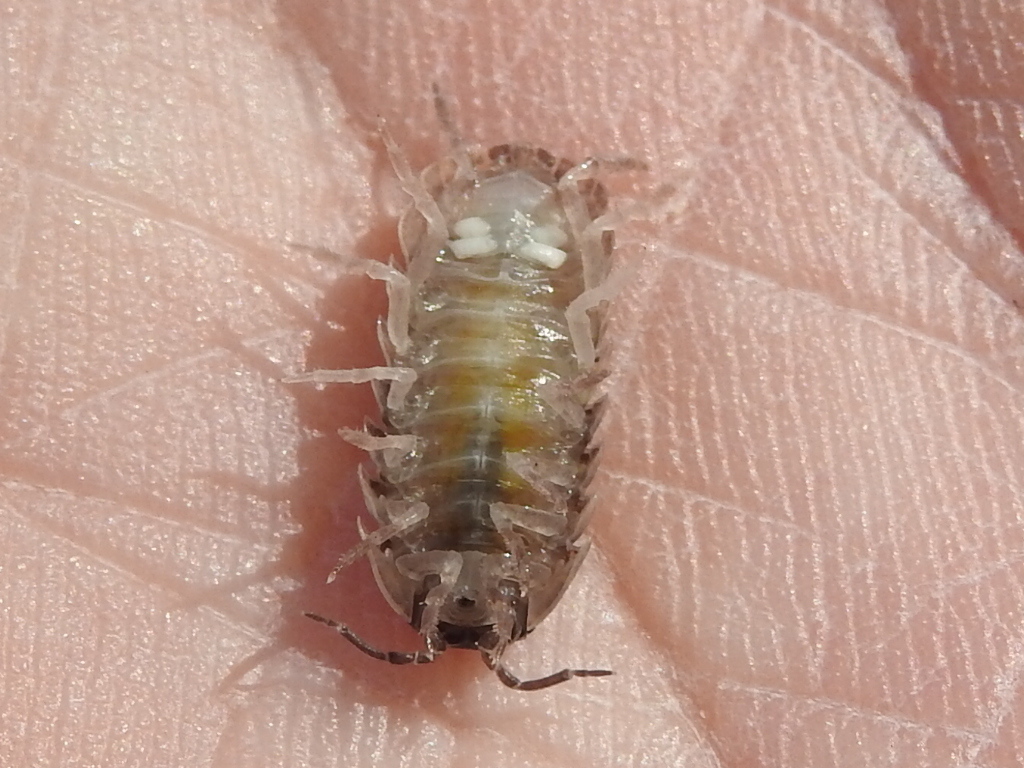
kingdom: Animalia
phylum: Arthropoda
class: Malacostraca
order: Isopoda
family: Armadillidiidae
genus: Armadillidium
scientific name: Armadillidium vulgare
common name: Common pill woodlouse
